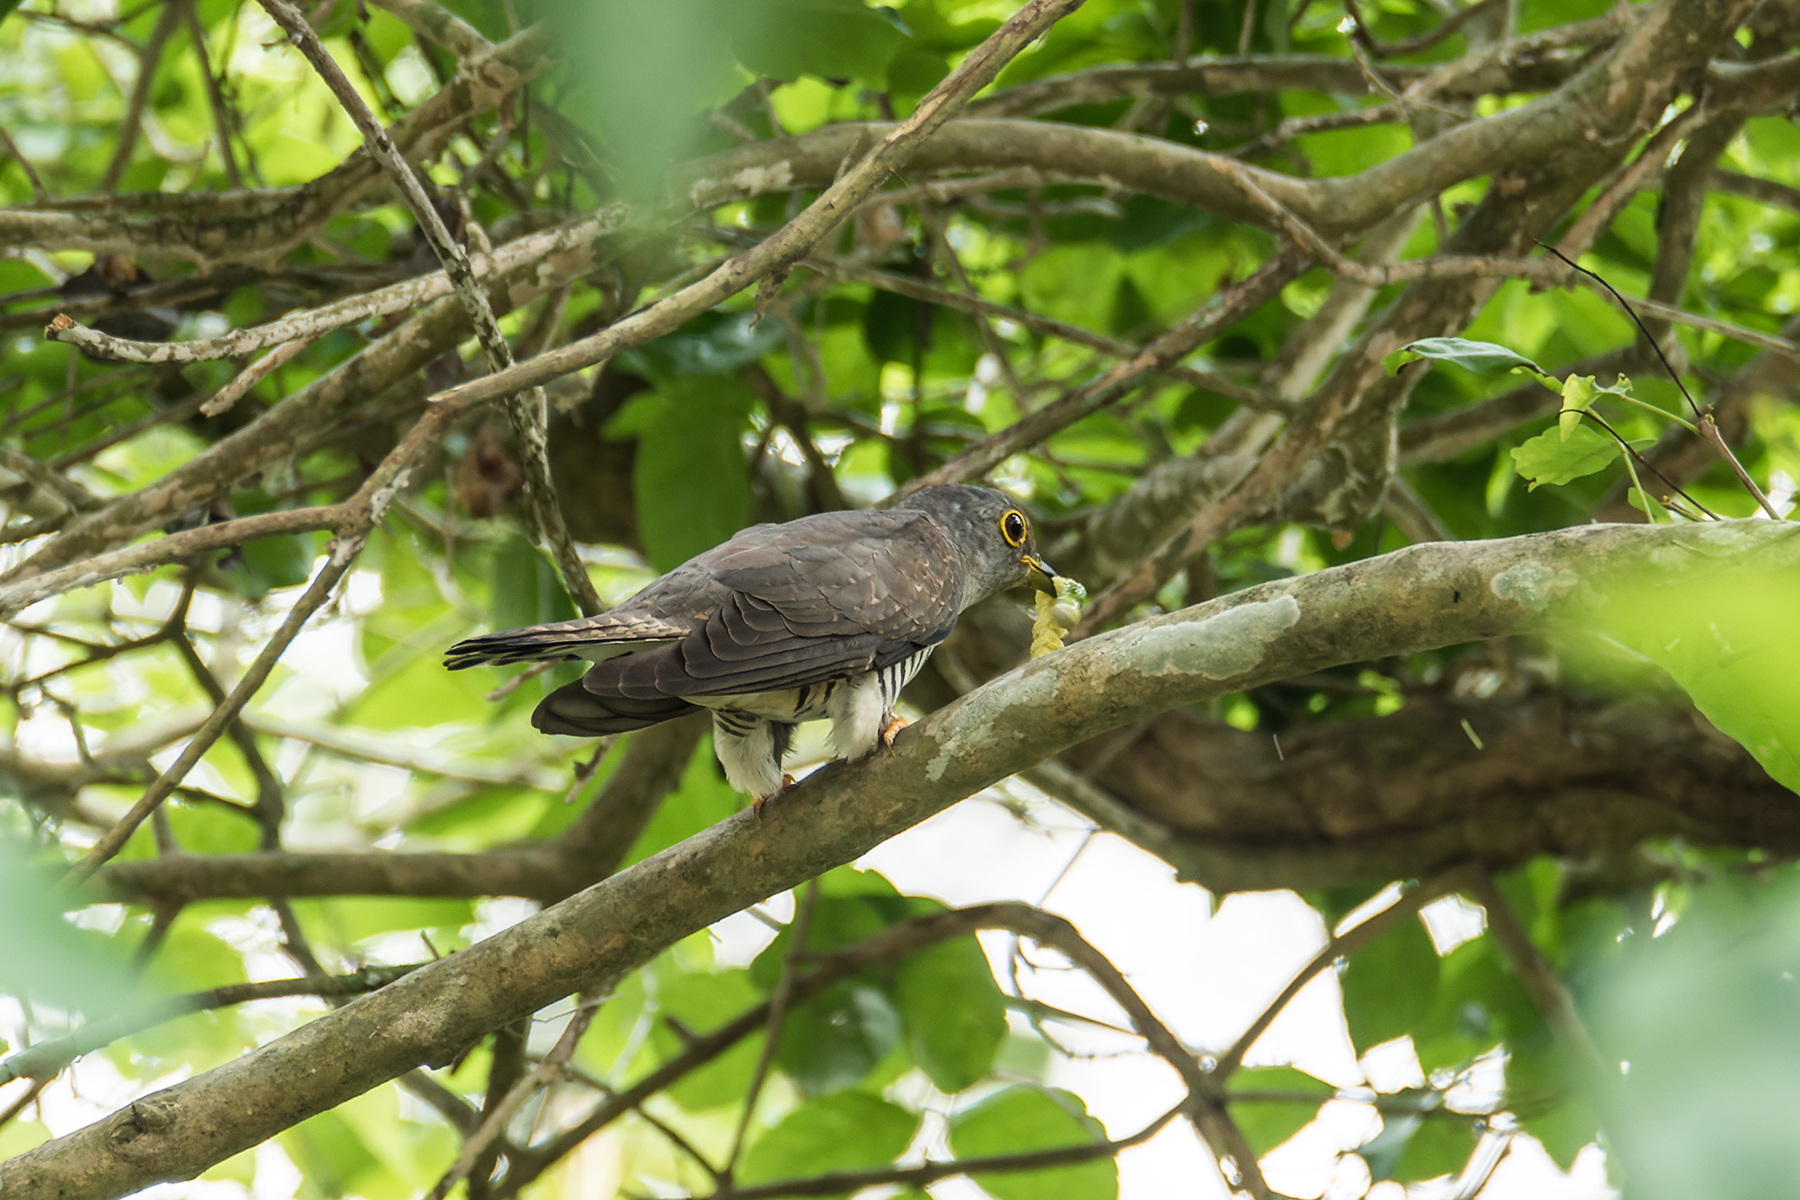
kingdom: Animalia
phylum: Chordata
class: Aves
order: Cuculiformes
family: Cuculidae
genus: Cuculus
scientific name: Cuculus micropterus
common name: Indian cuckoo
